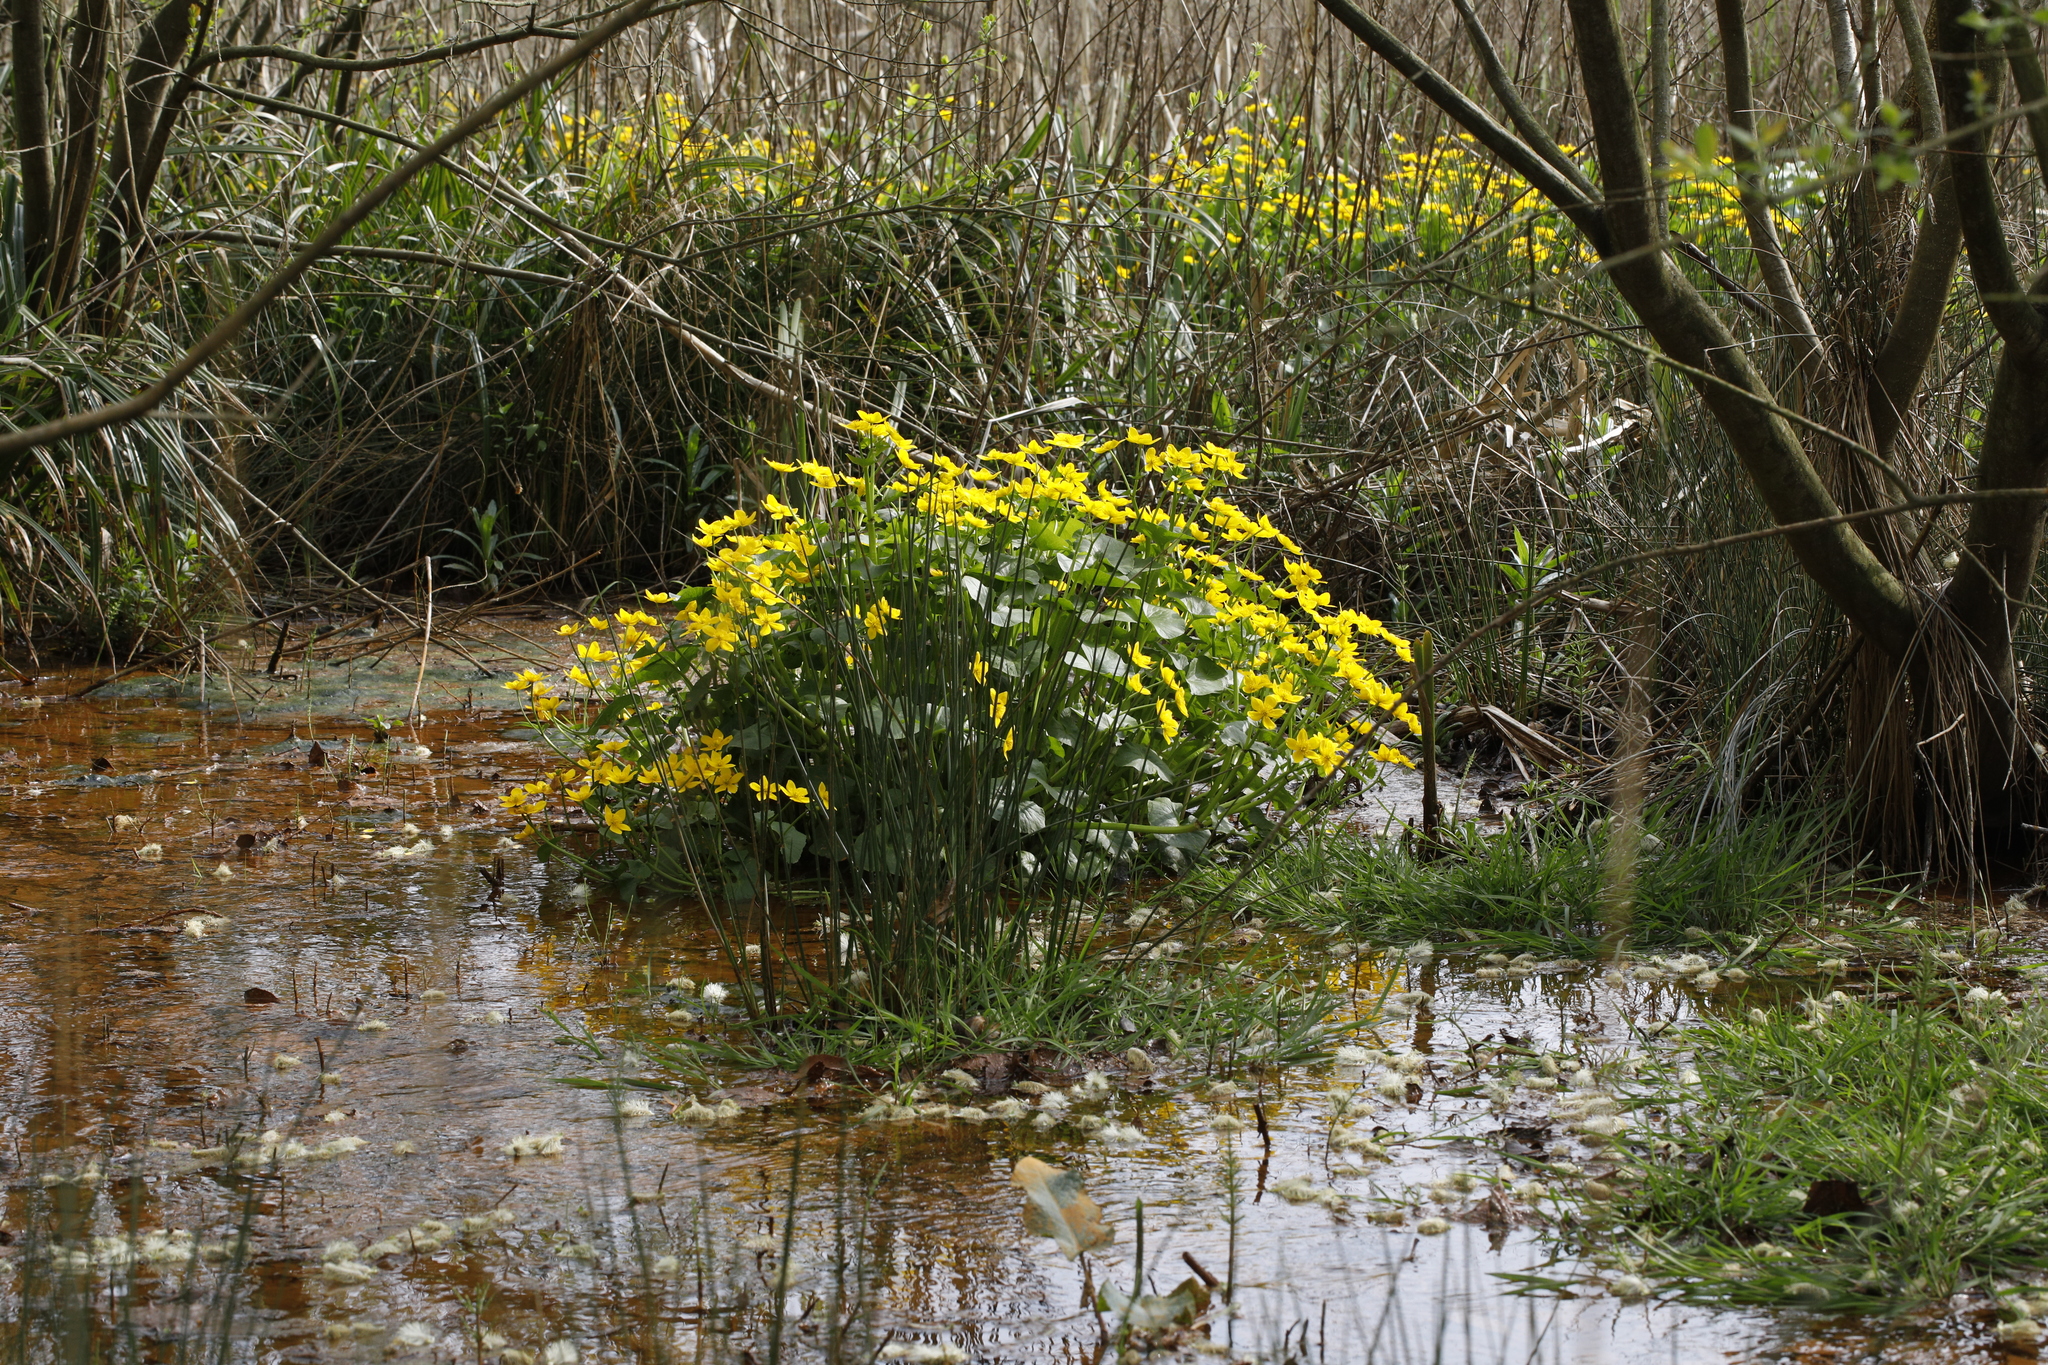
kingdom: Plantae
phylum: Tracheophyta
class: Magnoliopsida
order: Ranunculales
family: Ranunculaceae
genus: Caltha
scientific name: Caltha palustris
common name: Marsh marigold
